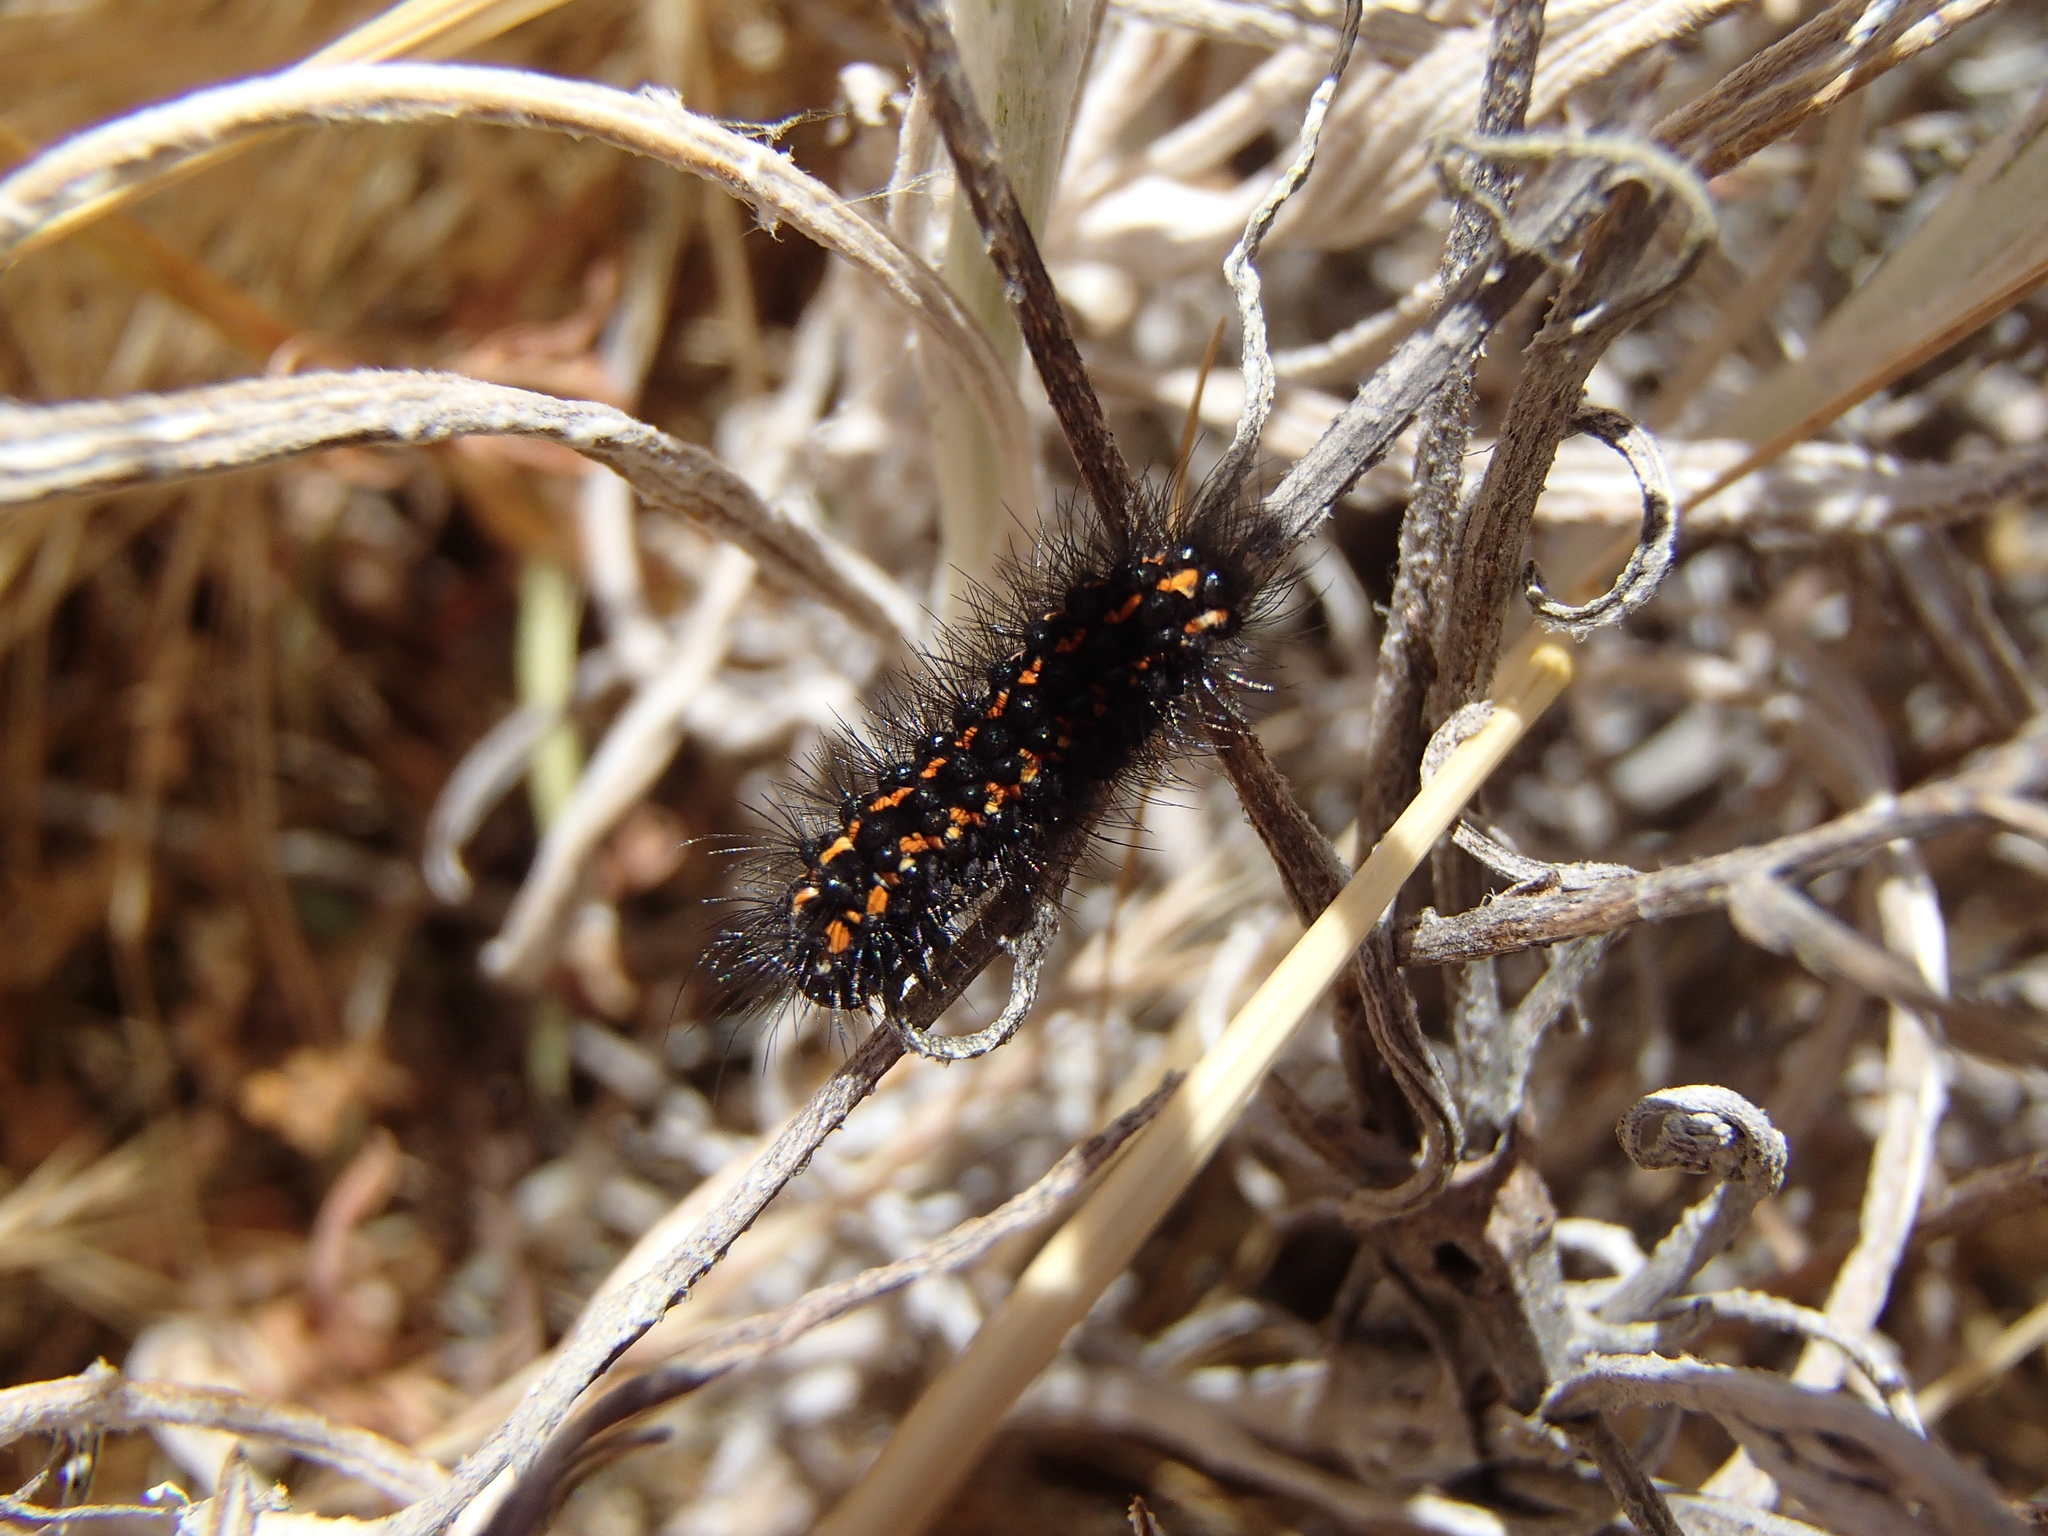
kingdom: Animalia
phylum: Arthropoda
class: Insecta
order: Lepidoptera
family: Erebidae
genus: Nyctemera
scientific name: Nyctemera annulatum
